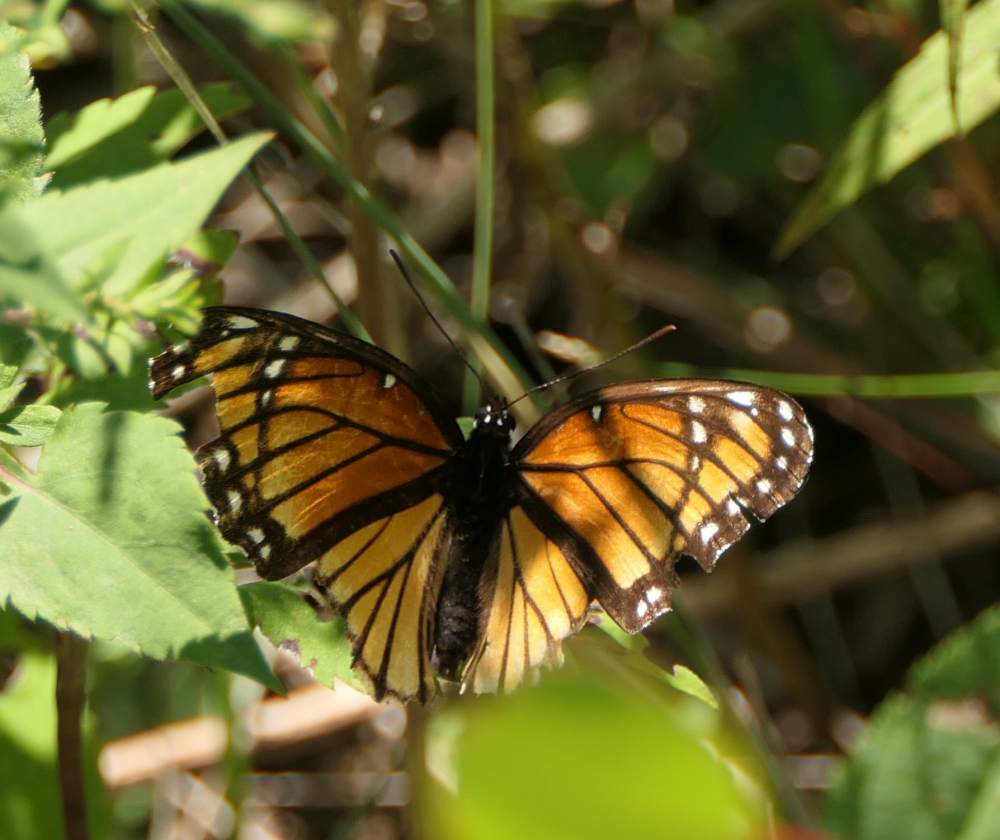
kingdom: Animalia
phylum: Arthropoda
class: Insecta
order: Lepidoptera
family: Nymphalidae
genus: Limenitis
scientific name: Limenitis archippus
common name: Viceroy
